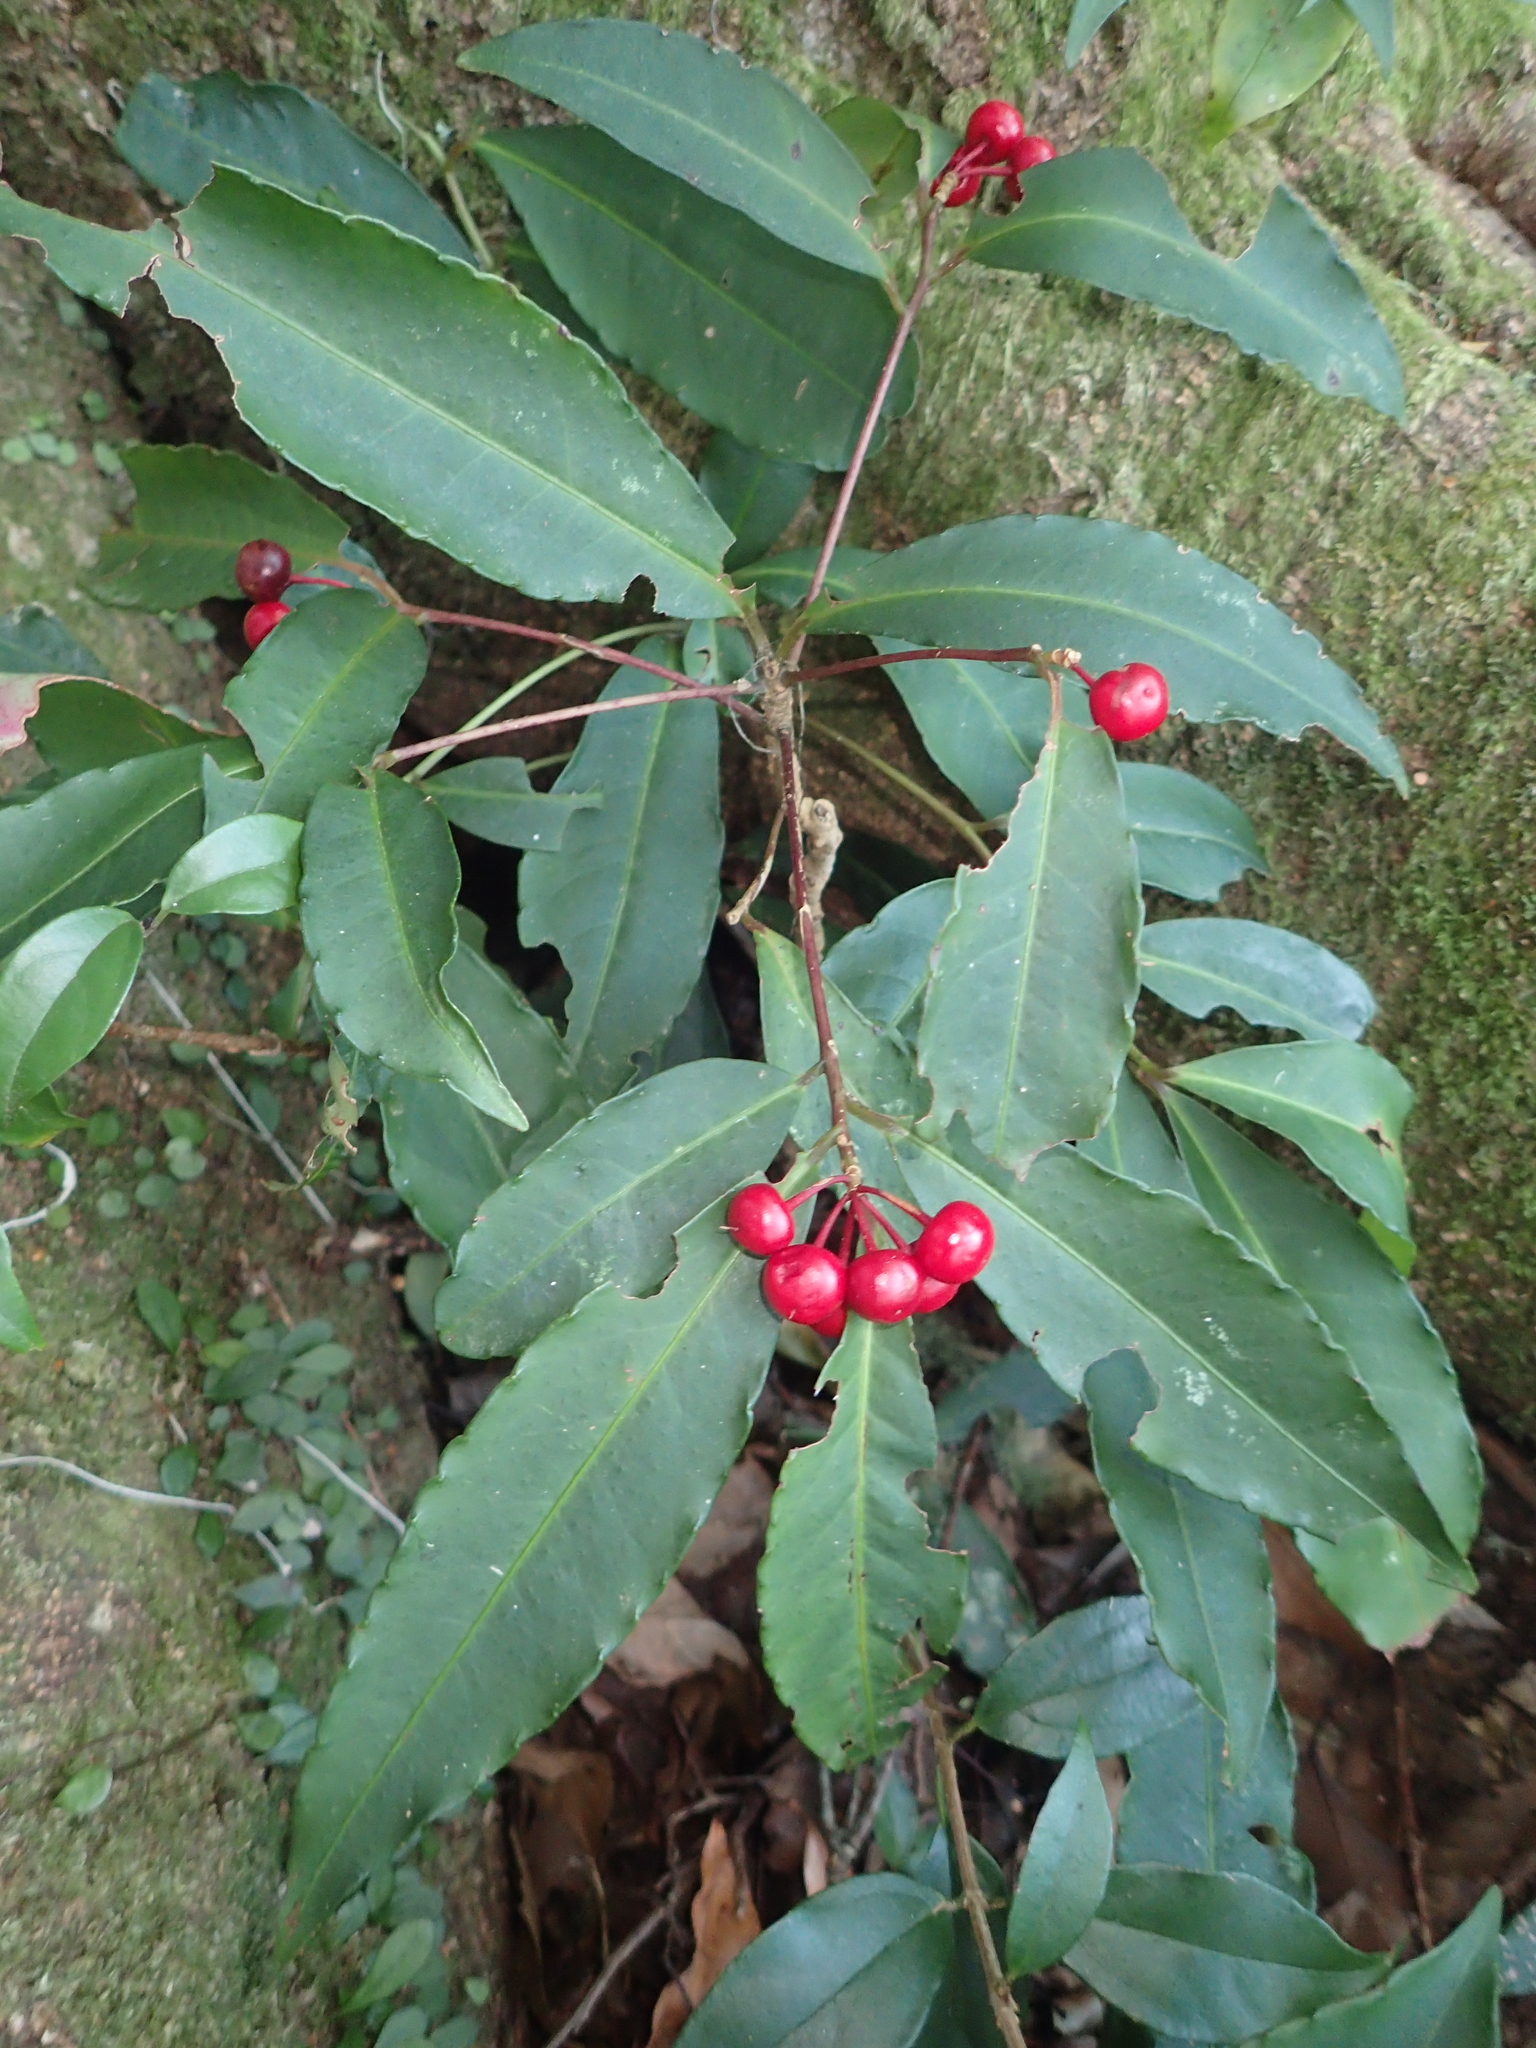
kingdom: Plantae
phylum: Tracheophyta
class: Magnoliopsida
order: Ericales
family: Primulaceae
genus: Ardisia
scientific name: Ardisia crenata
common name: Hen's eyes
